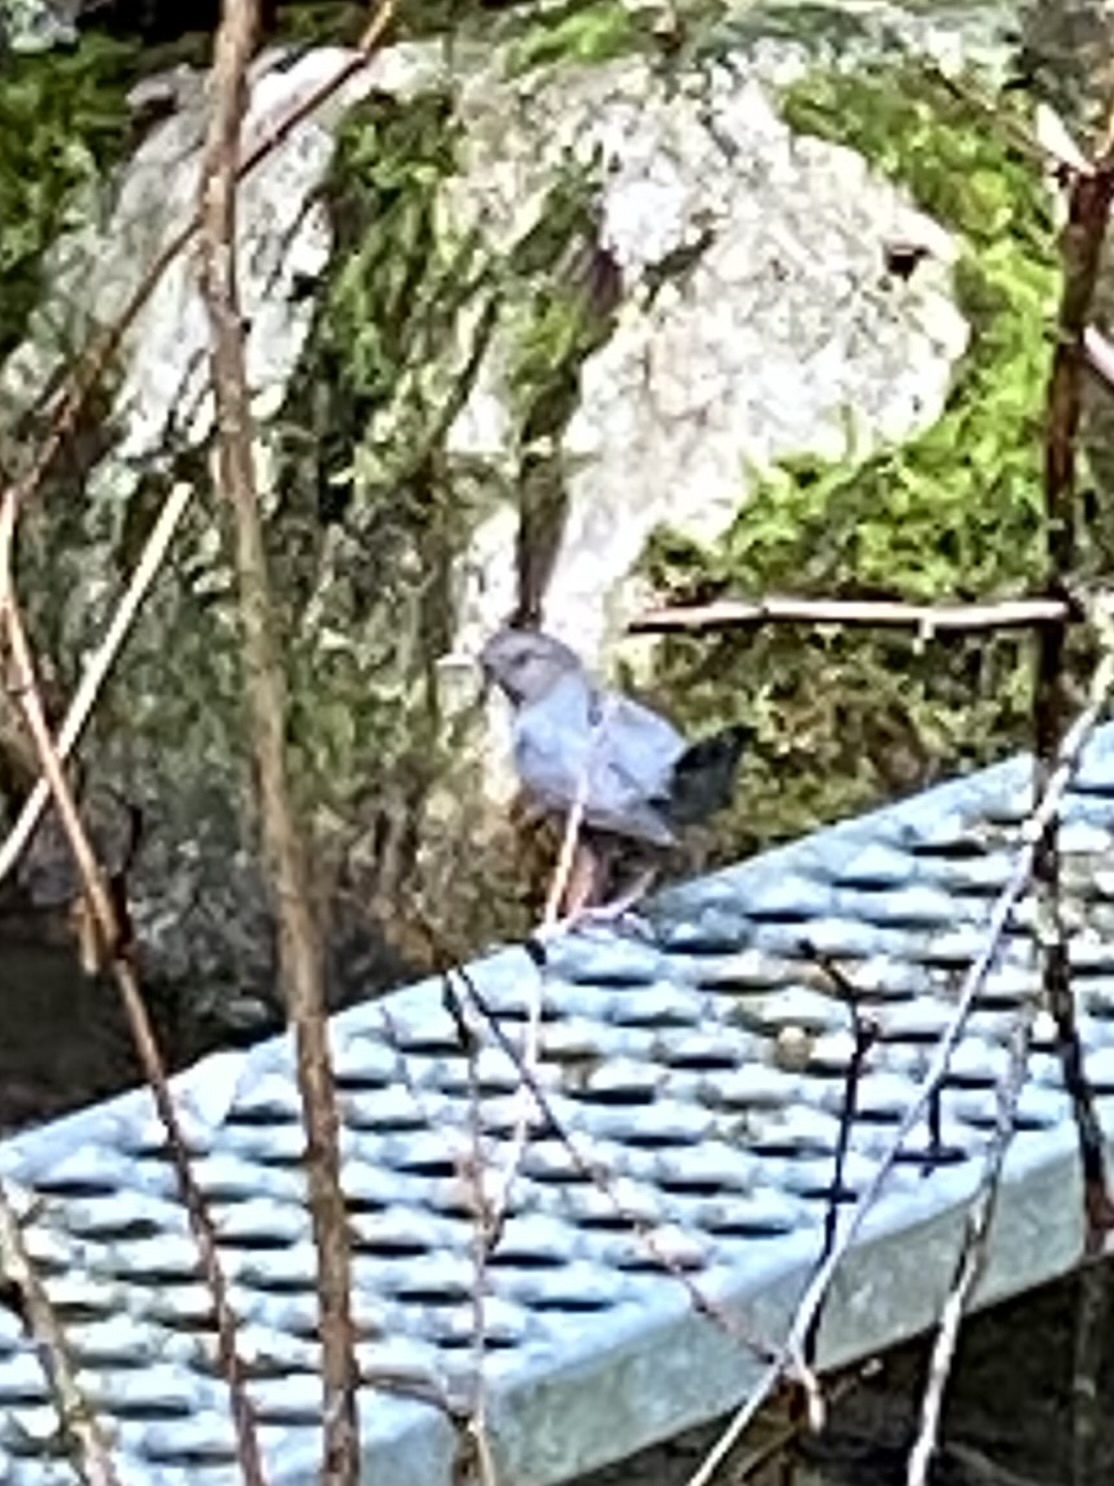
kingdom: Animalia
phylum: Chordata
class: Aves
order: Passeriformes
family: Cinclidae
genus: Cinclus
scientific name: Cinclus mexicanus
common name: American dipper
